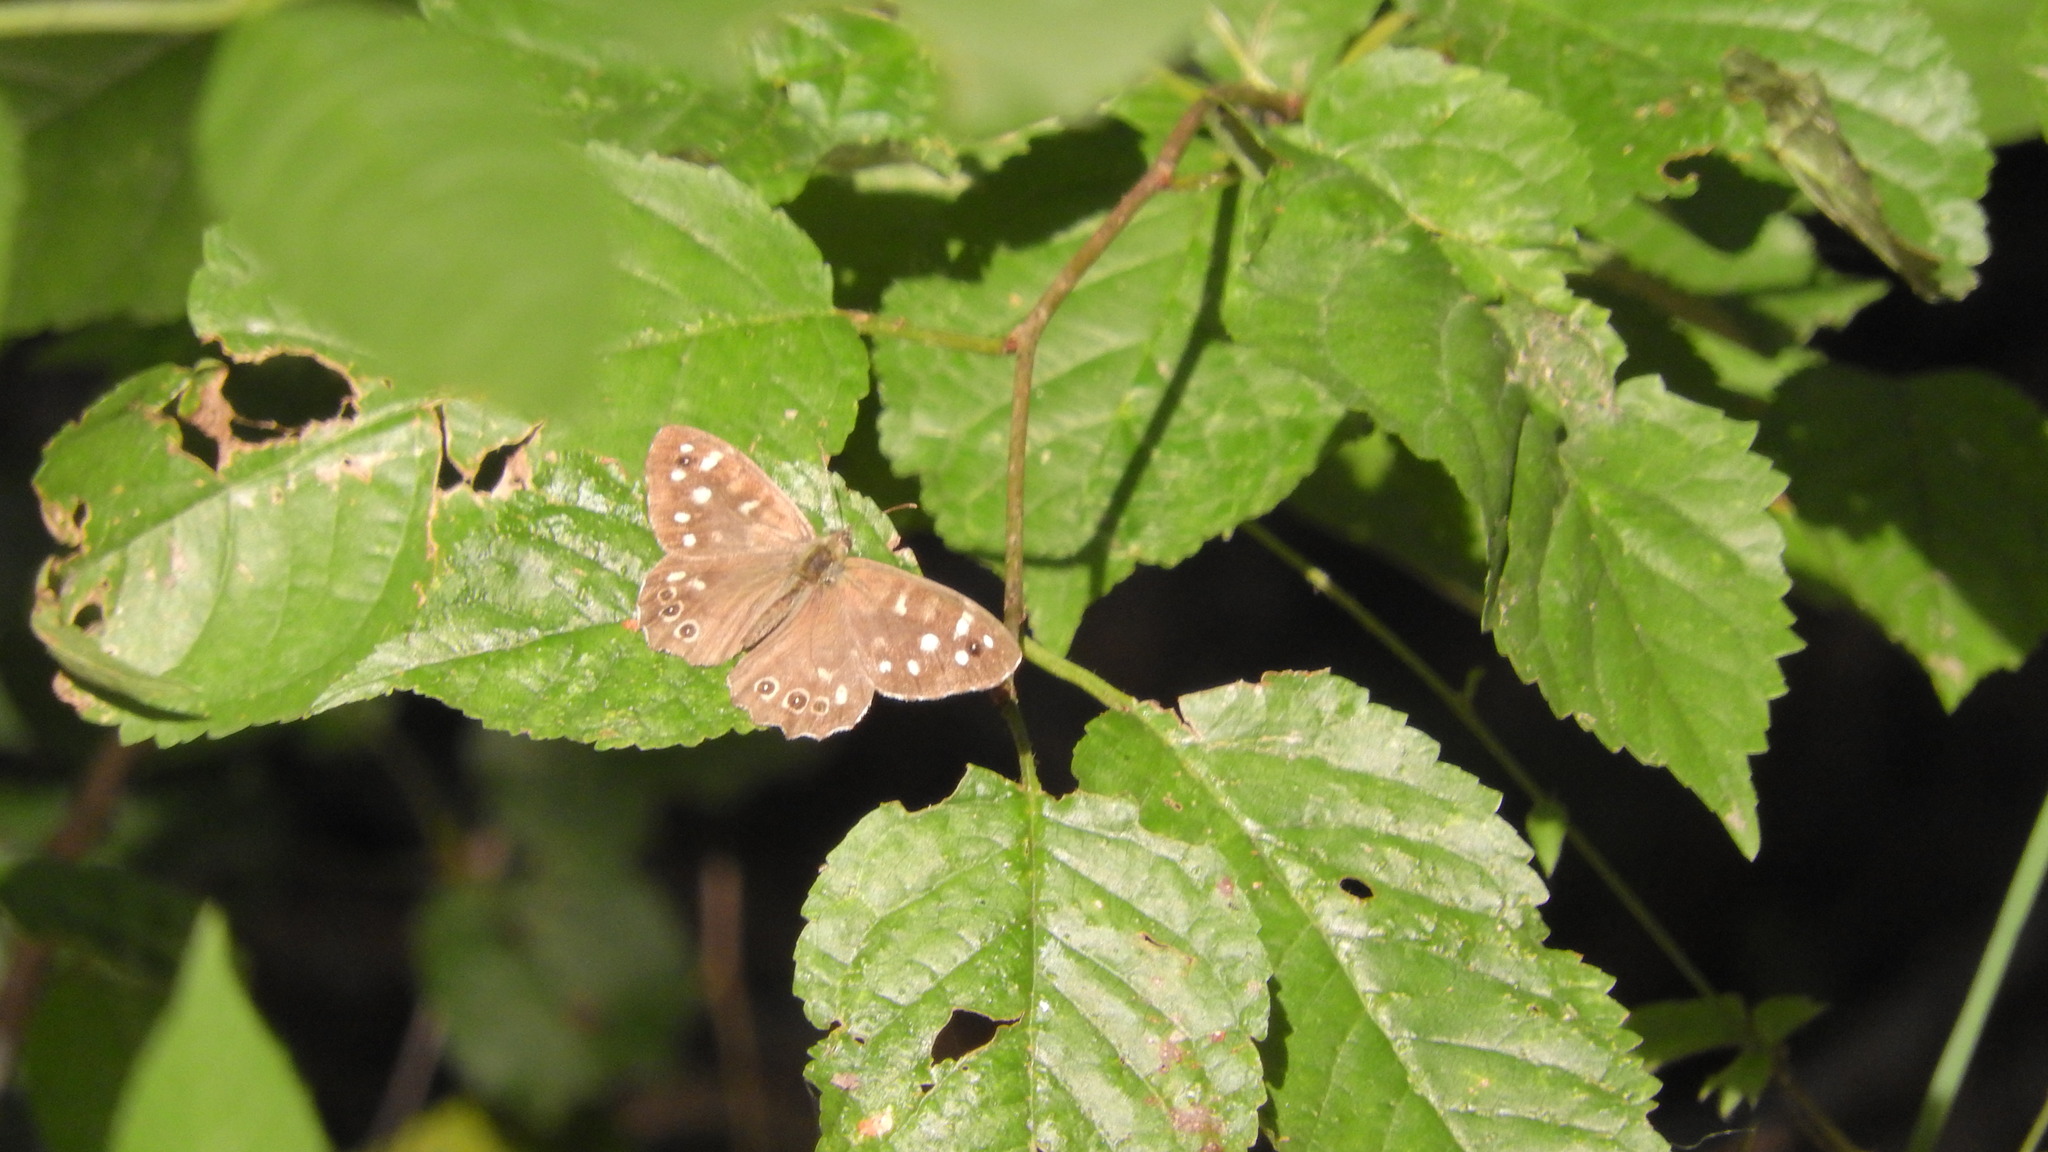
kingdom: Animalia
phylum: Arthropoda
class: Insecta
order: Lepidoptera
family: Nymphalidae
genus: Pararge
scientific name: Pararge aegeria
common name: Speckled wood
